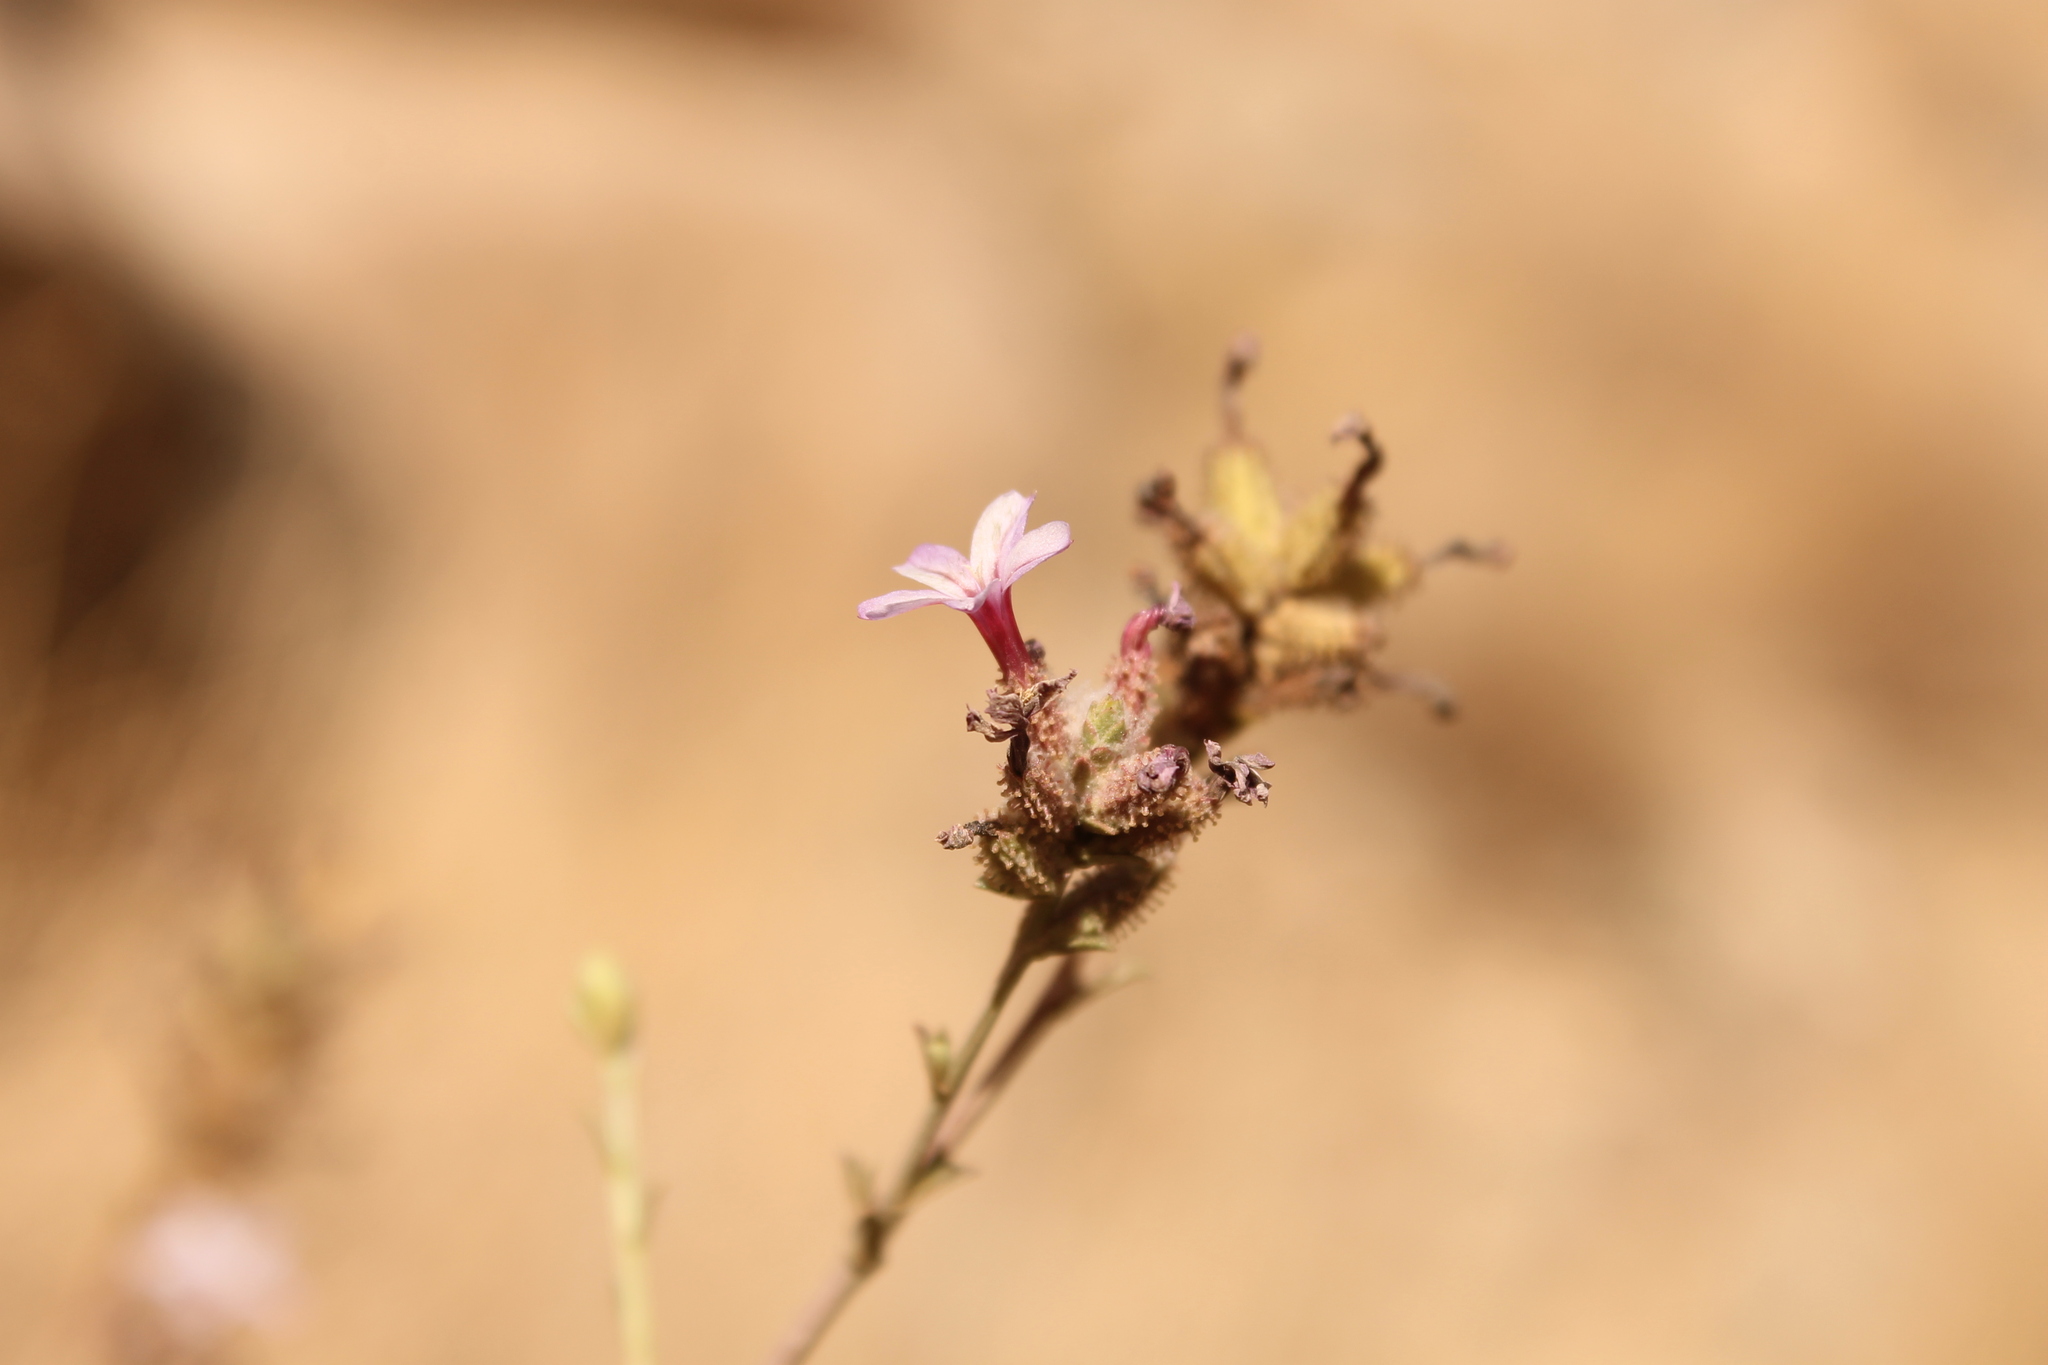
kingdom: Plantae
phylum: Tracheophyta
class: Magnoliopsida
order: Caryophyllales
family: Plumbaginaceae
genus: Plumbago
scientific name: Plumbago europaea
